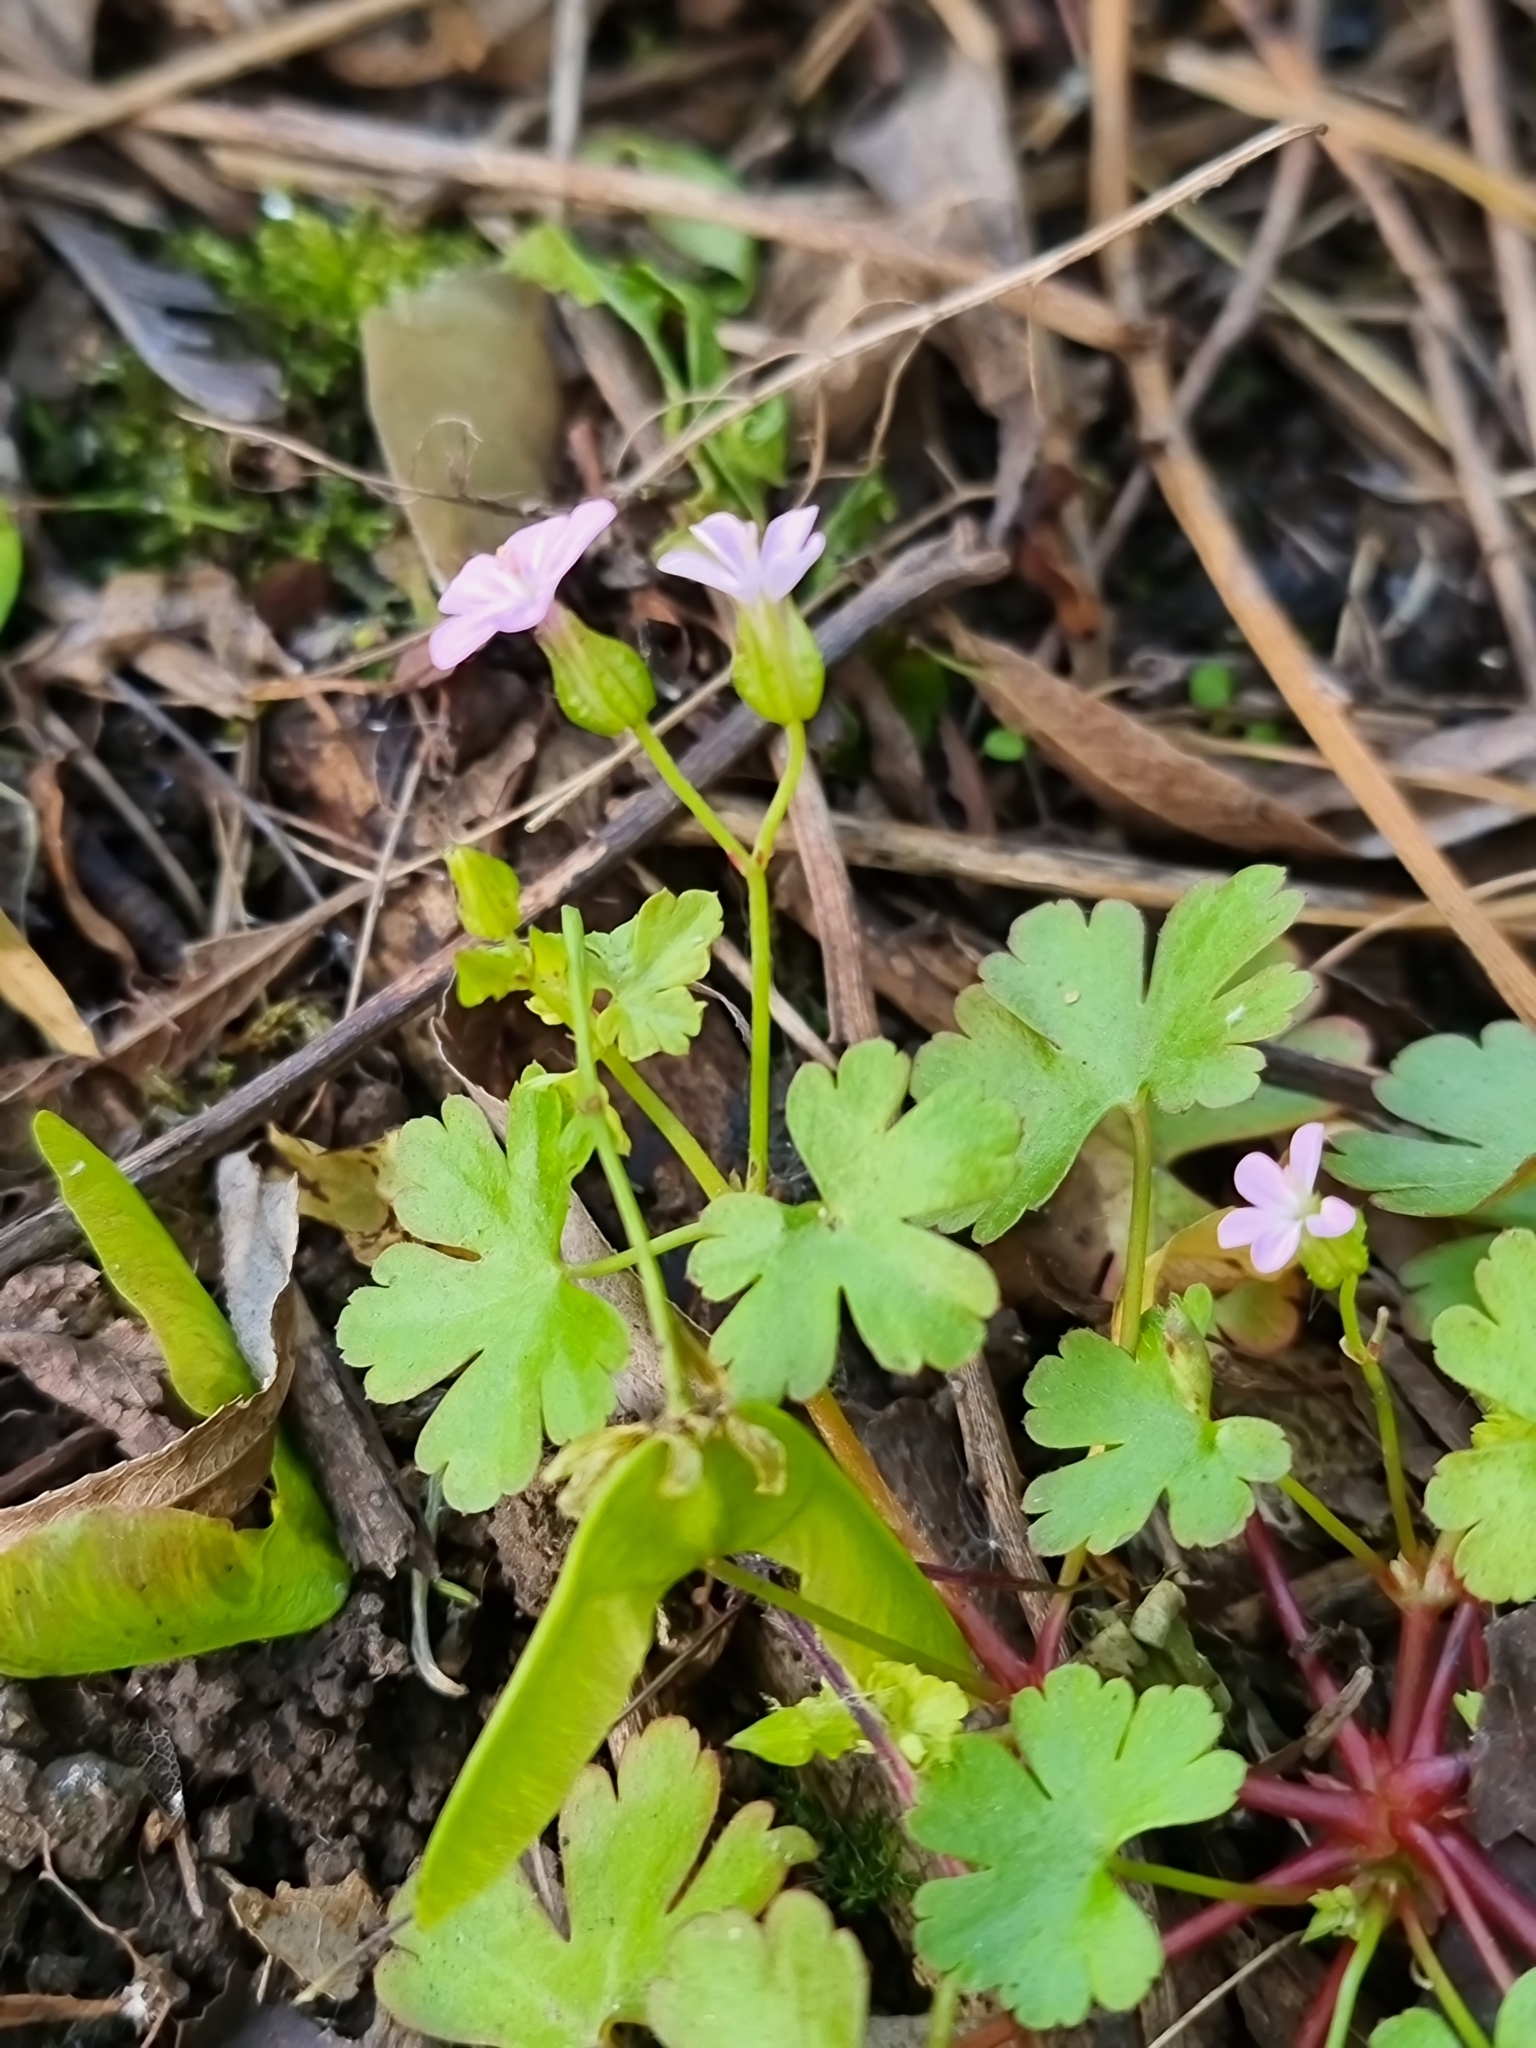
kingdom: Plantae
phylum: Tracheophyta
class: Magnoliopsida
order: Geraniales
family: Geraniaceae
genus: Geranium
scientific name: Geranium lucidum
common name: Shining crane's-bill
